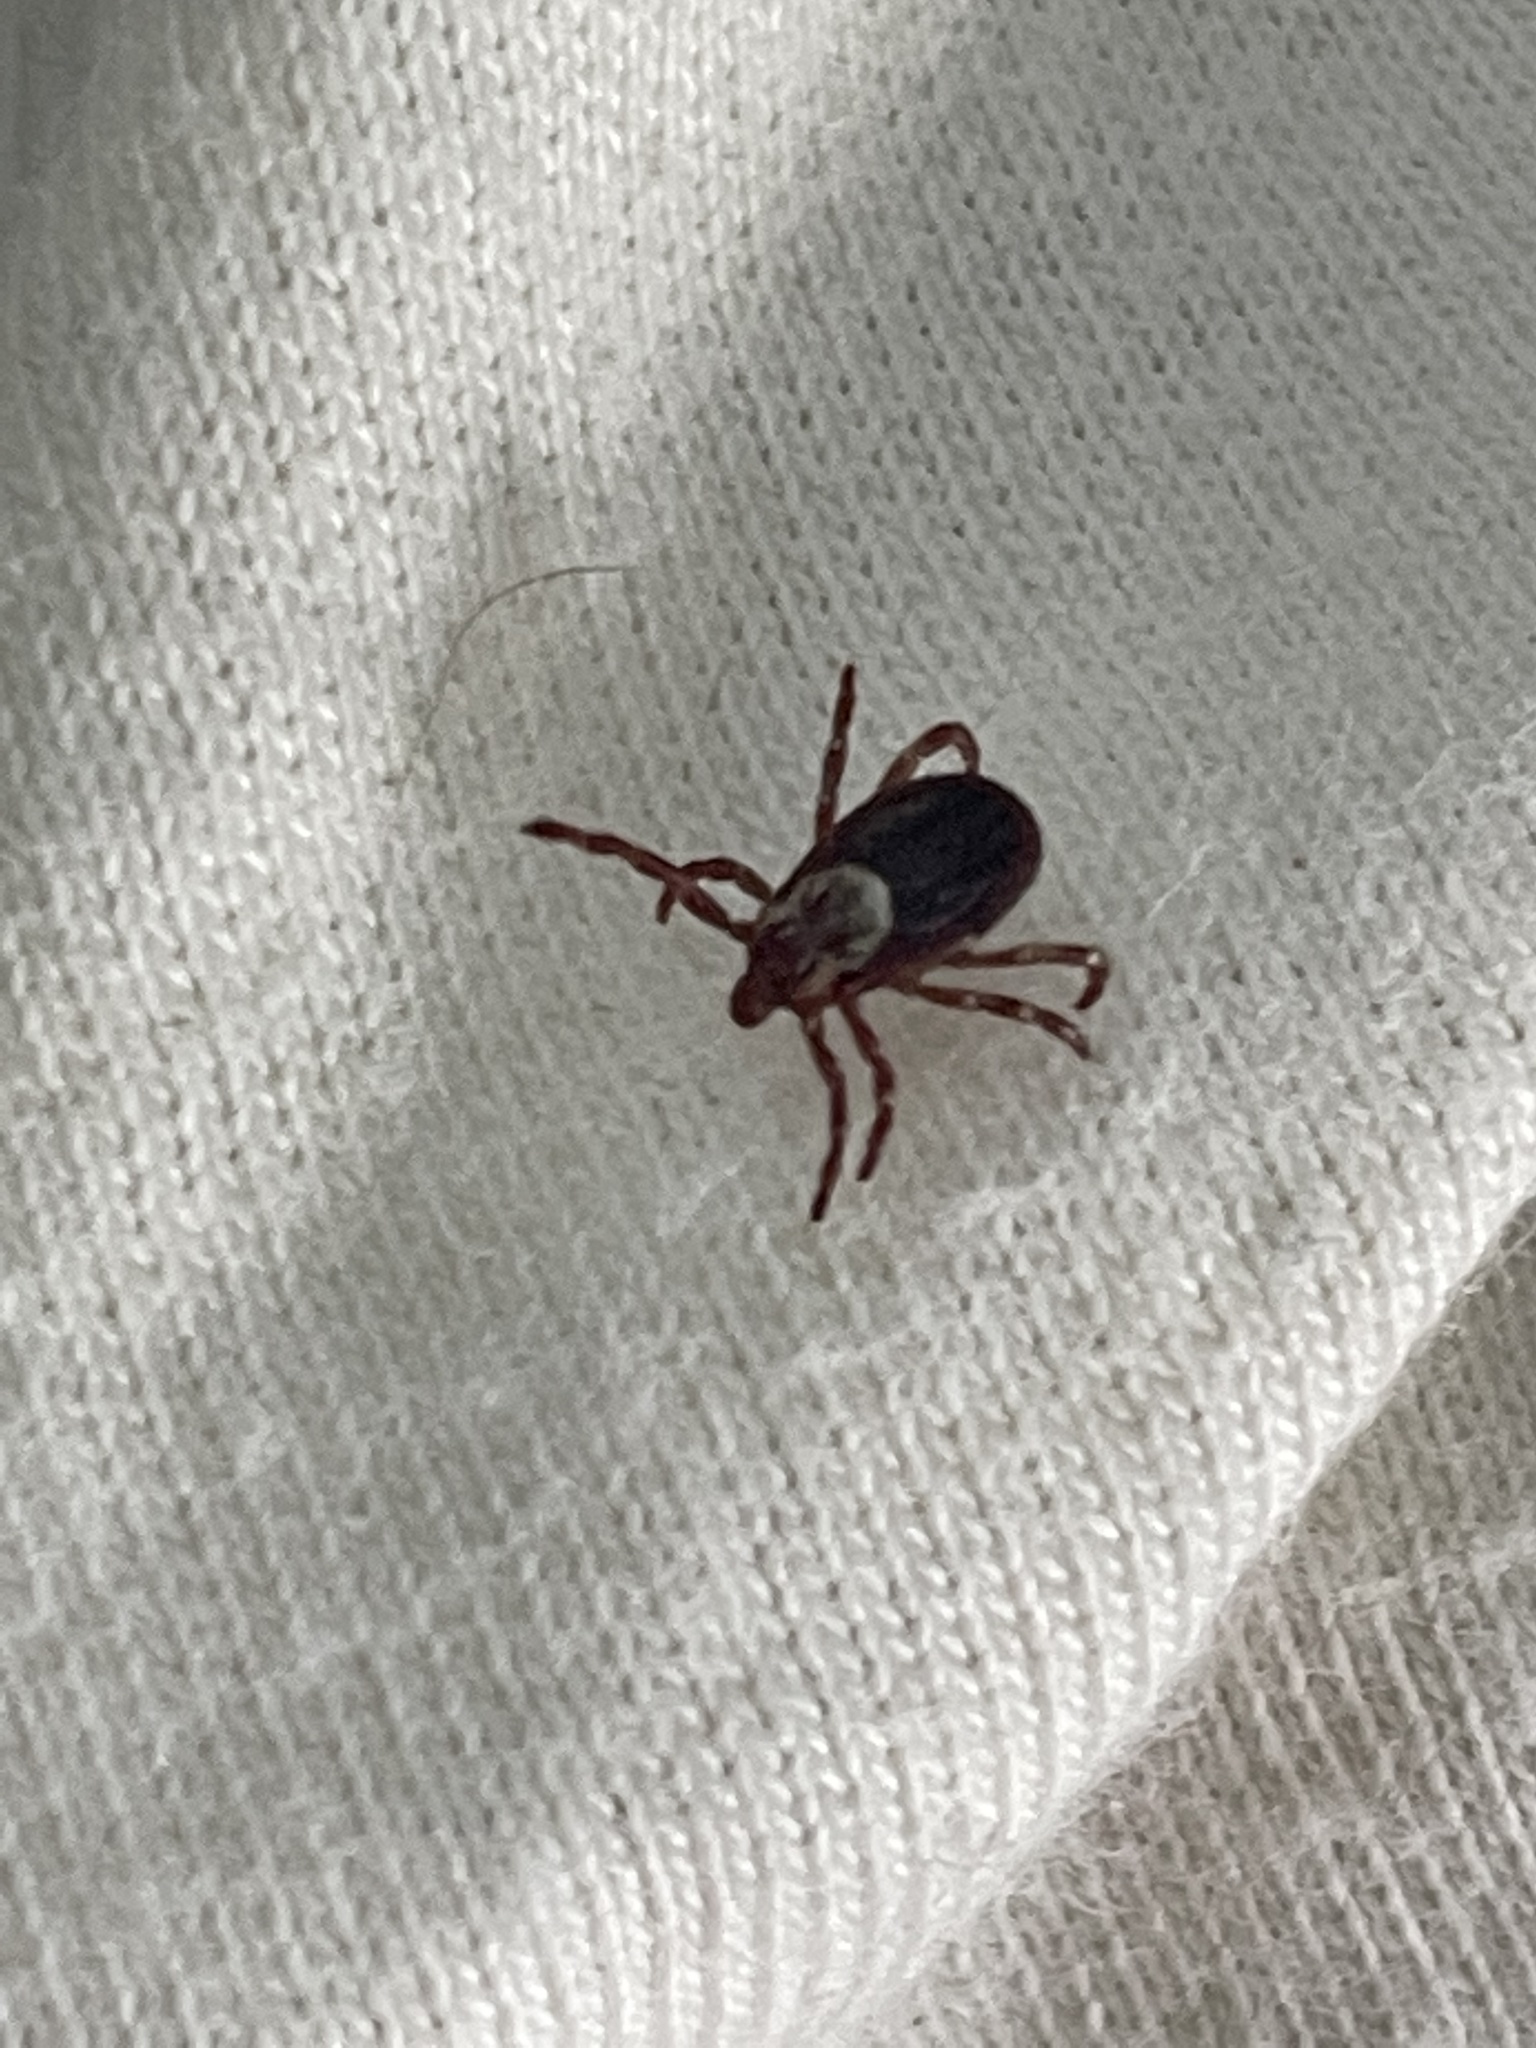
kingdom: Animalia
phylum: Arthropoda
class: Arachnida
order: Ixodida
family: Ixodidae
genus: Dermacentor
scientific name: Dermacentor variabilis
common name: American dog tick
